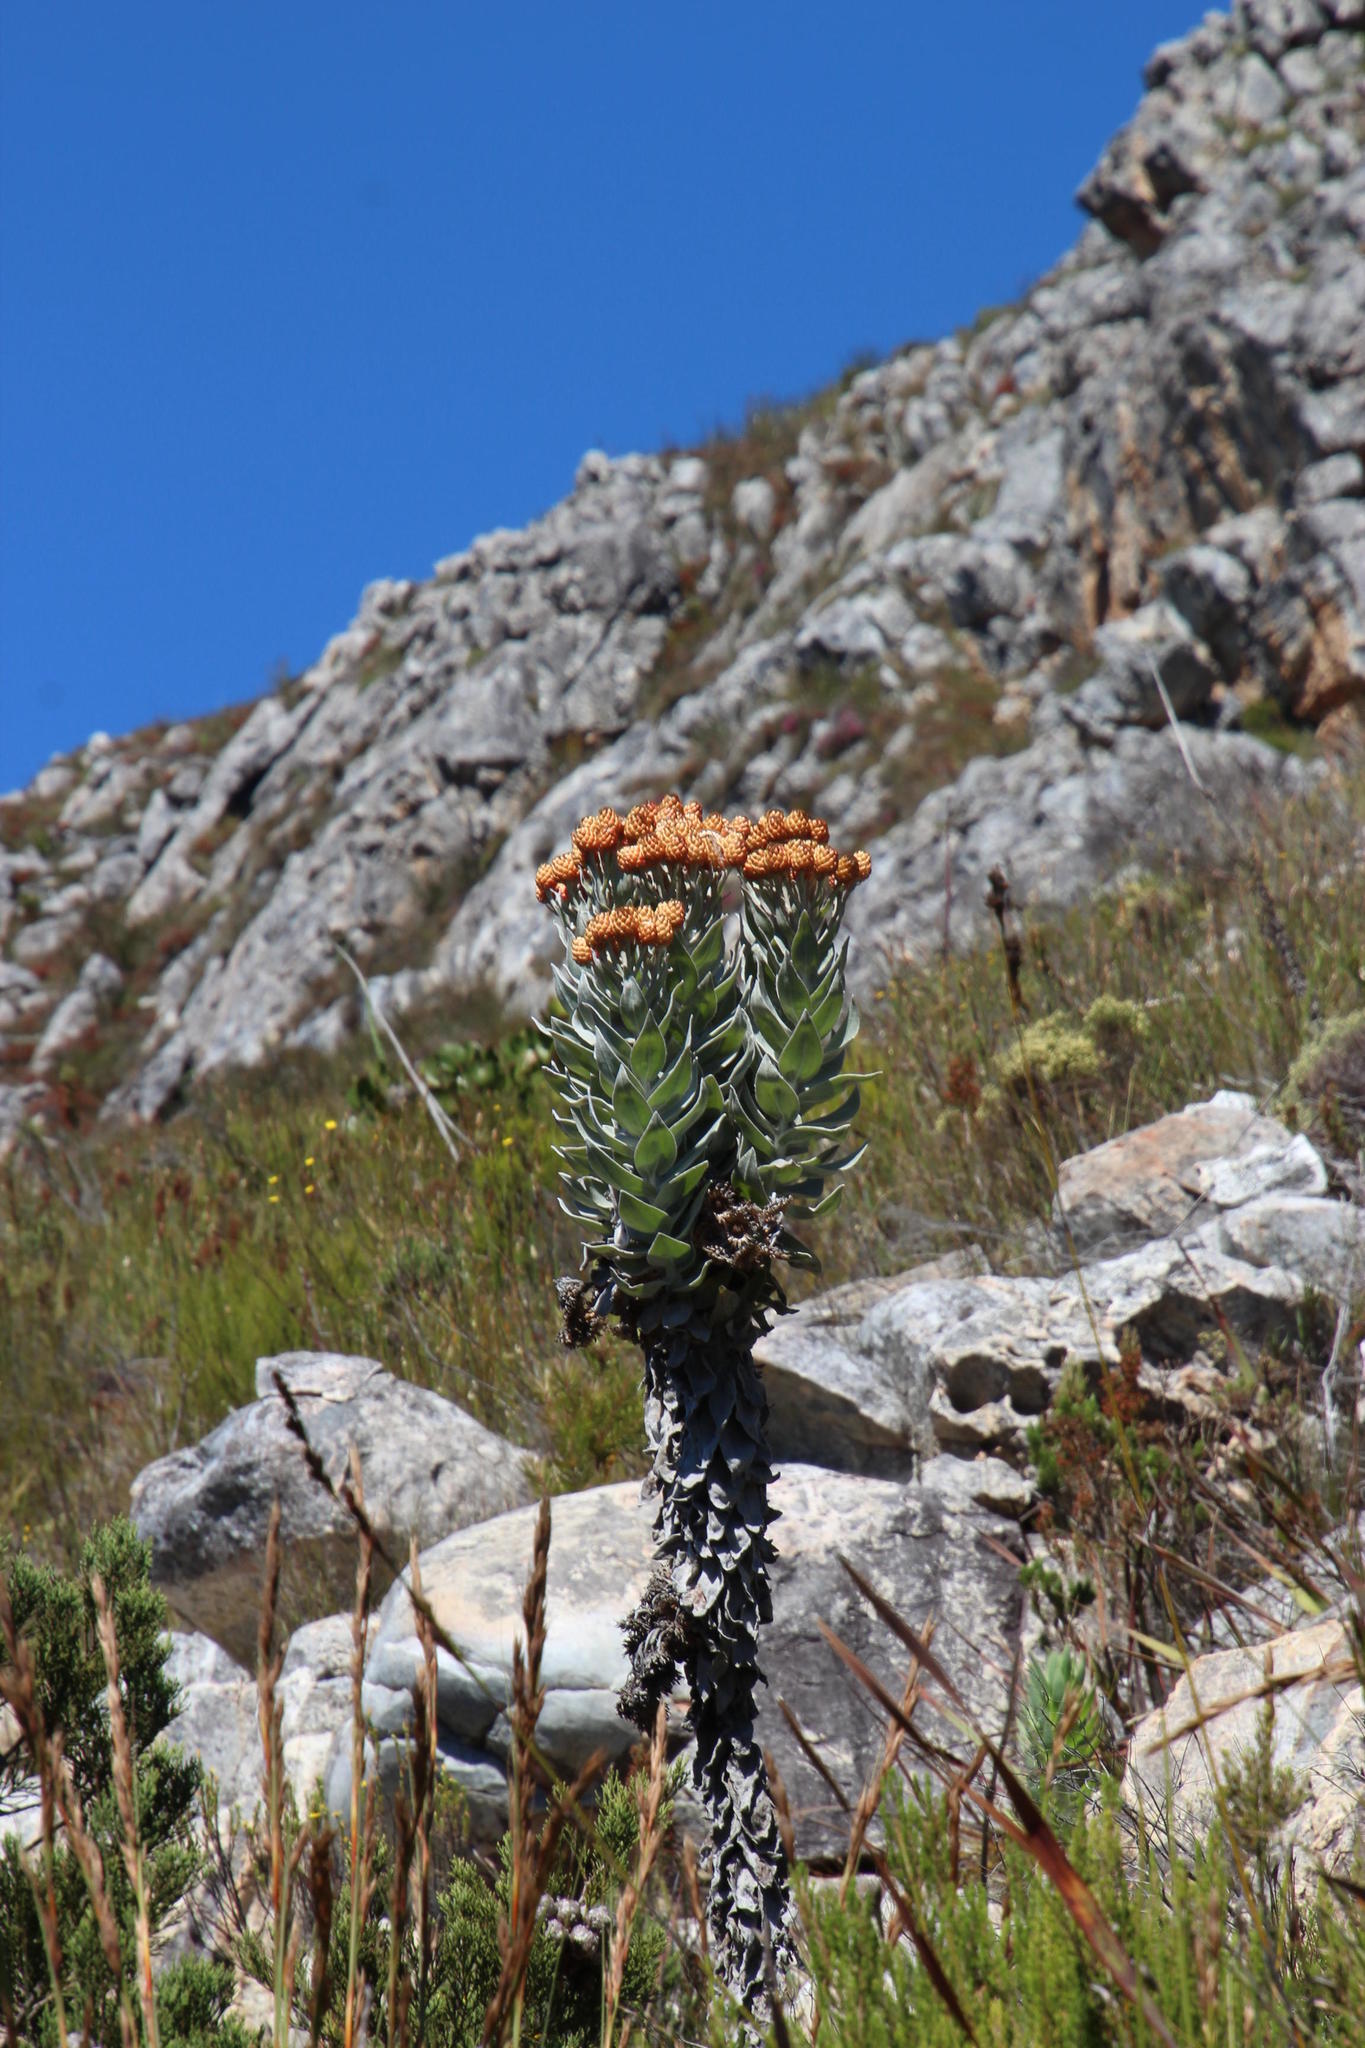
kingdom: Plantae
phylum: Tracheophyta
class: Magnoliopsida
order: Asterales
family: Asteraceae
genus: Syncarpha
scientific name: Syncarpha eximia
